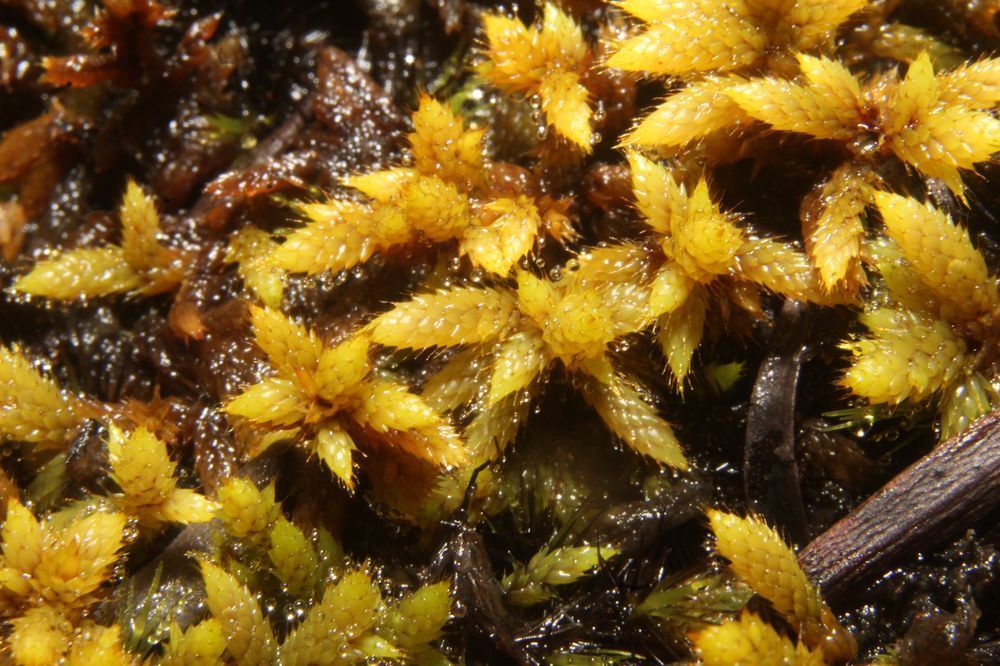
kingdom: Plantae
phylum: Bryophyta
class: Bryopsida
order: Hedwigiales
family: Hedwigiaceae
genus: Rhacocarpus
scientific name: Rhacocarpus purpurascens
